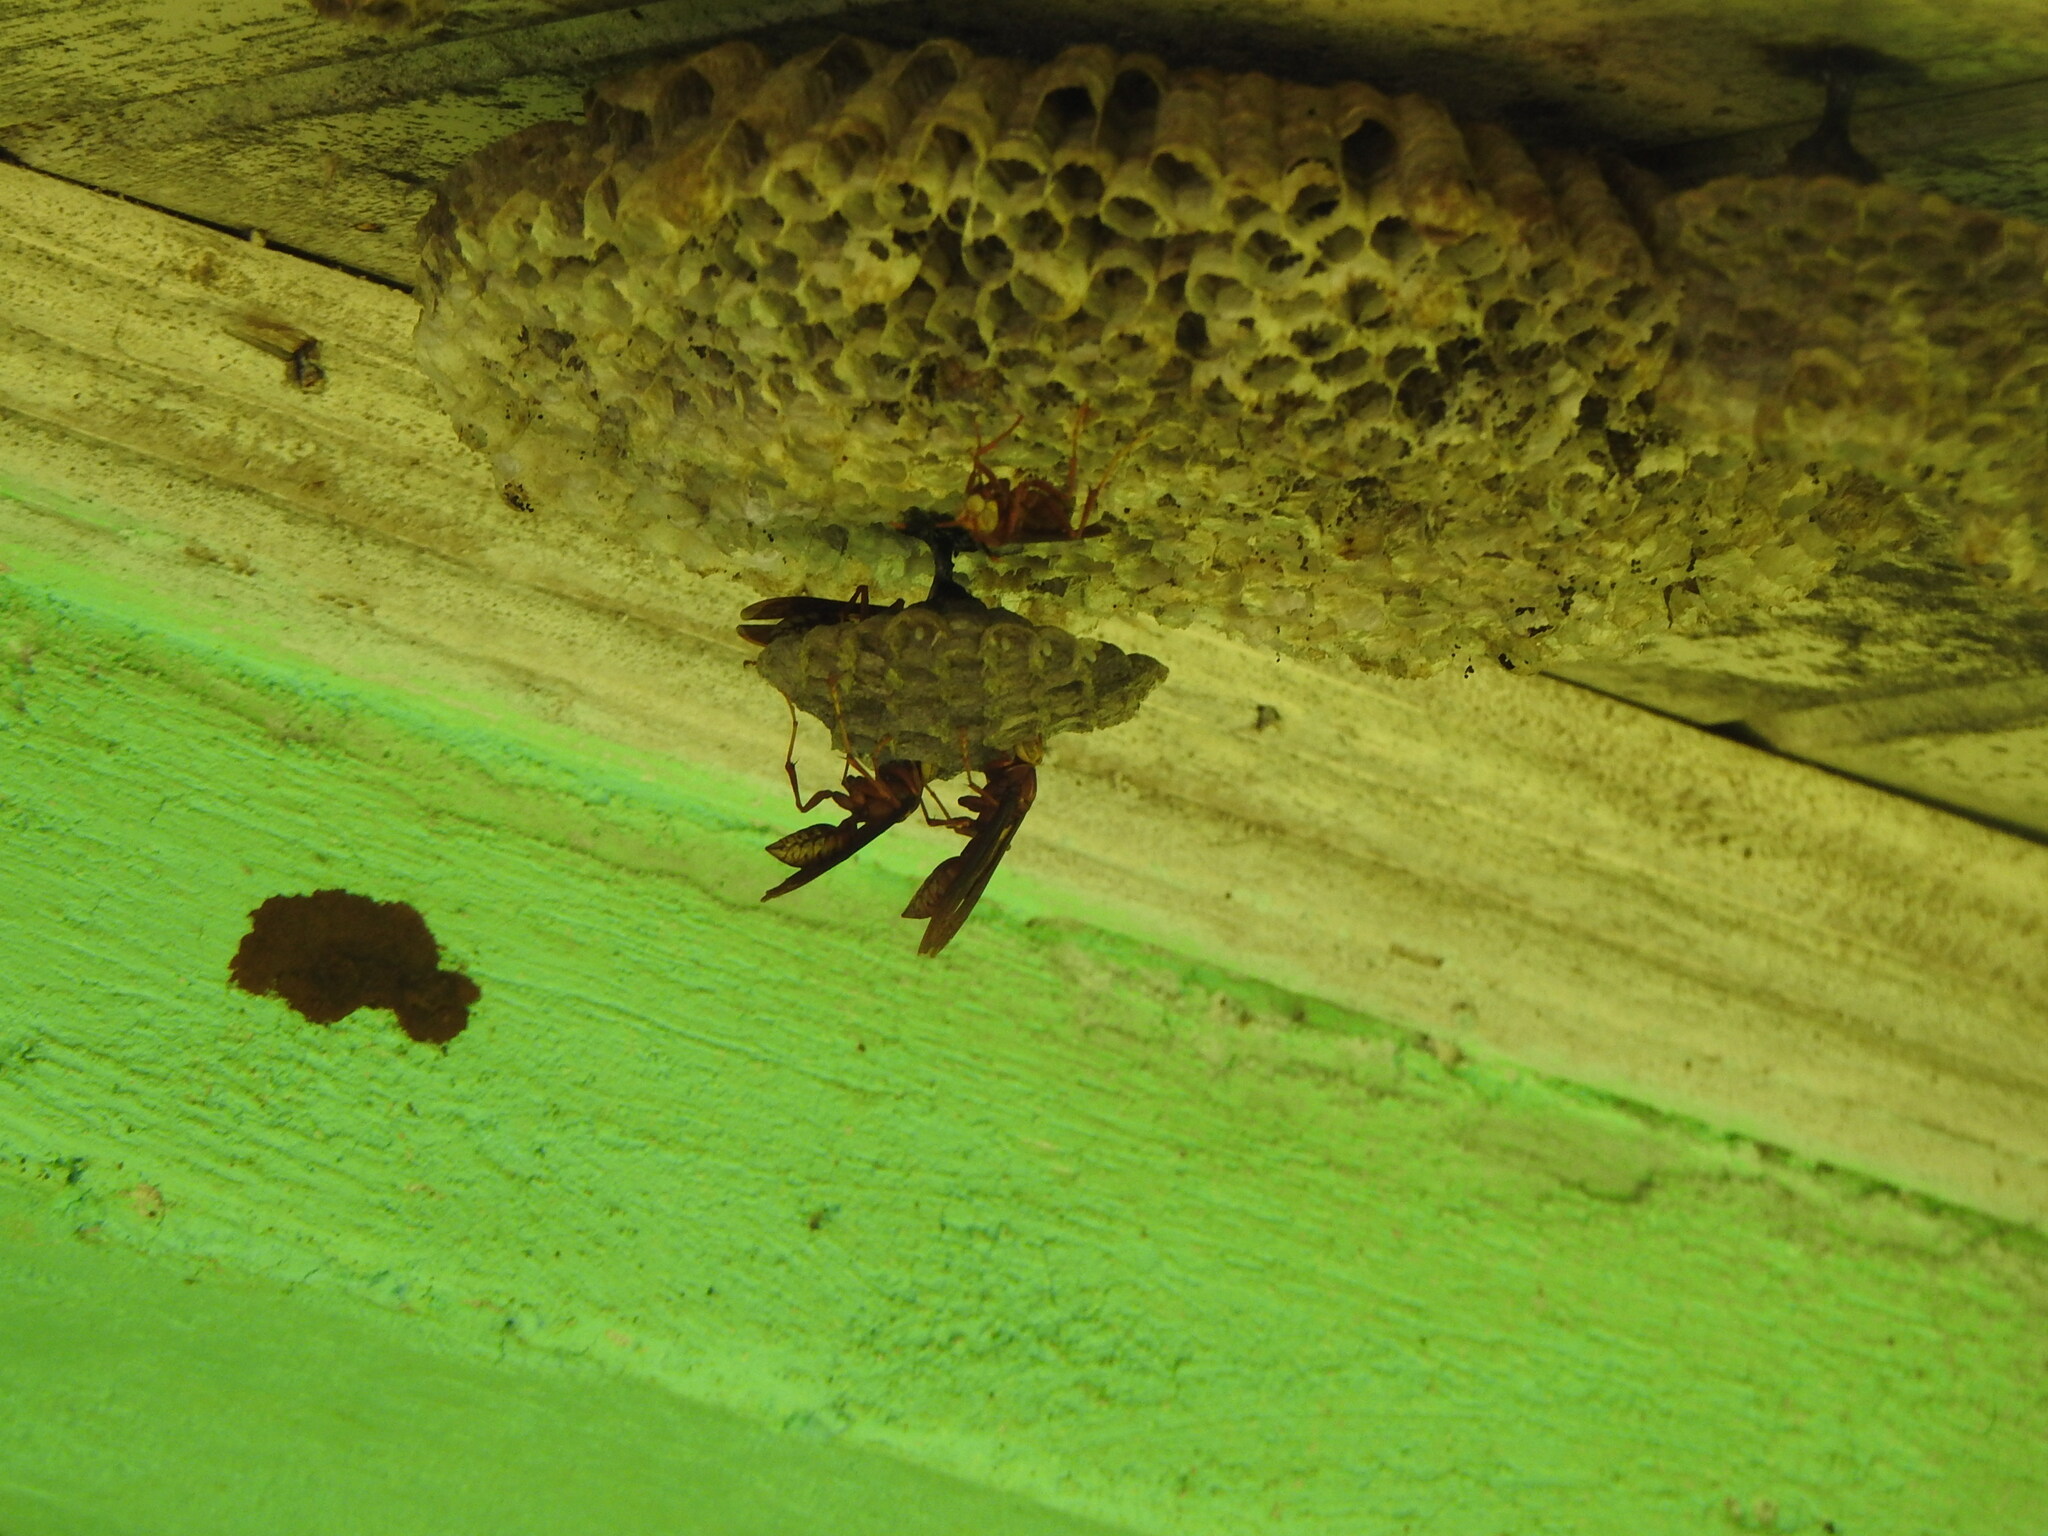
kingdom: Animalia
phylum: Arthropoda
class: Insecta
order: Hymenoptera
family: Eumenidae
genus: Polistes
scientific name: Polistes cavapyta
